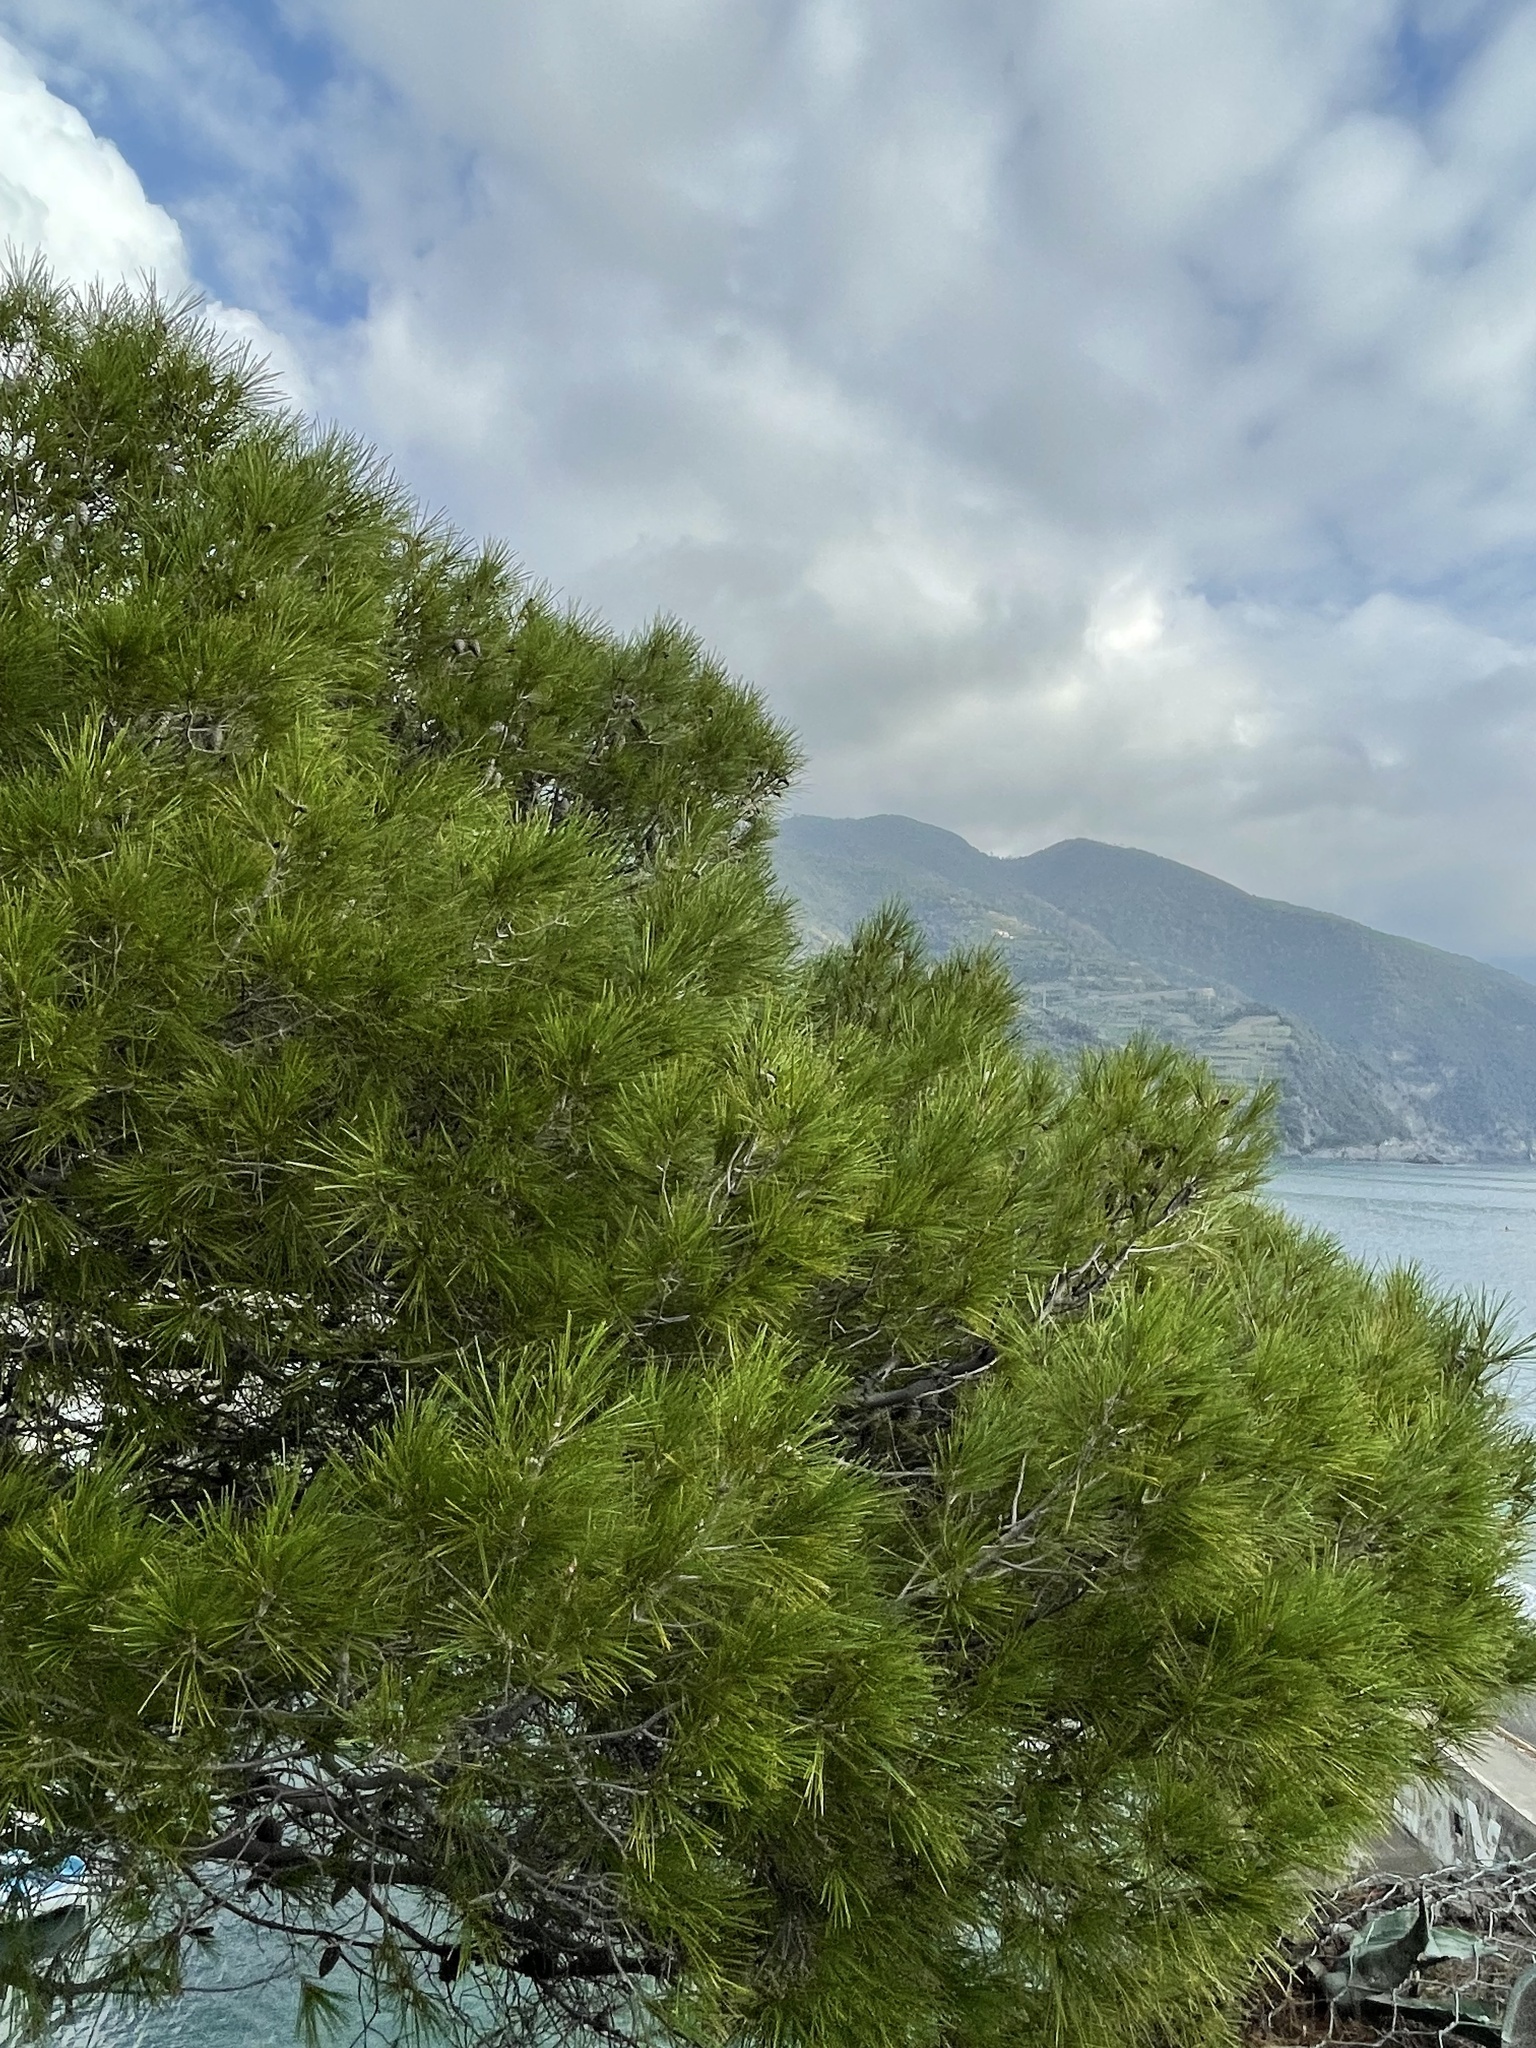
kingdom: Plantae
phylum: Tracheophyta
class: Pinopsida
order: Pinales
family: Pinaceae
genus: Pinus
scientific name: Pinus halepensis
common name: Aleppo pine
